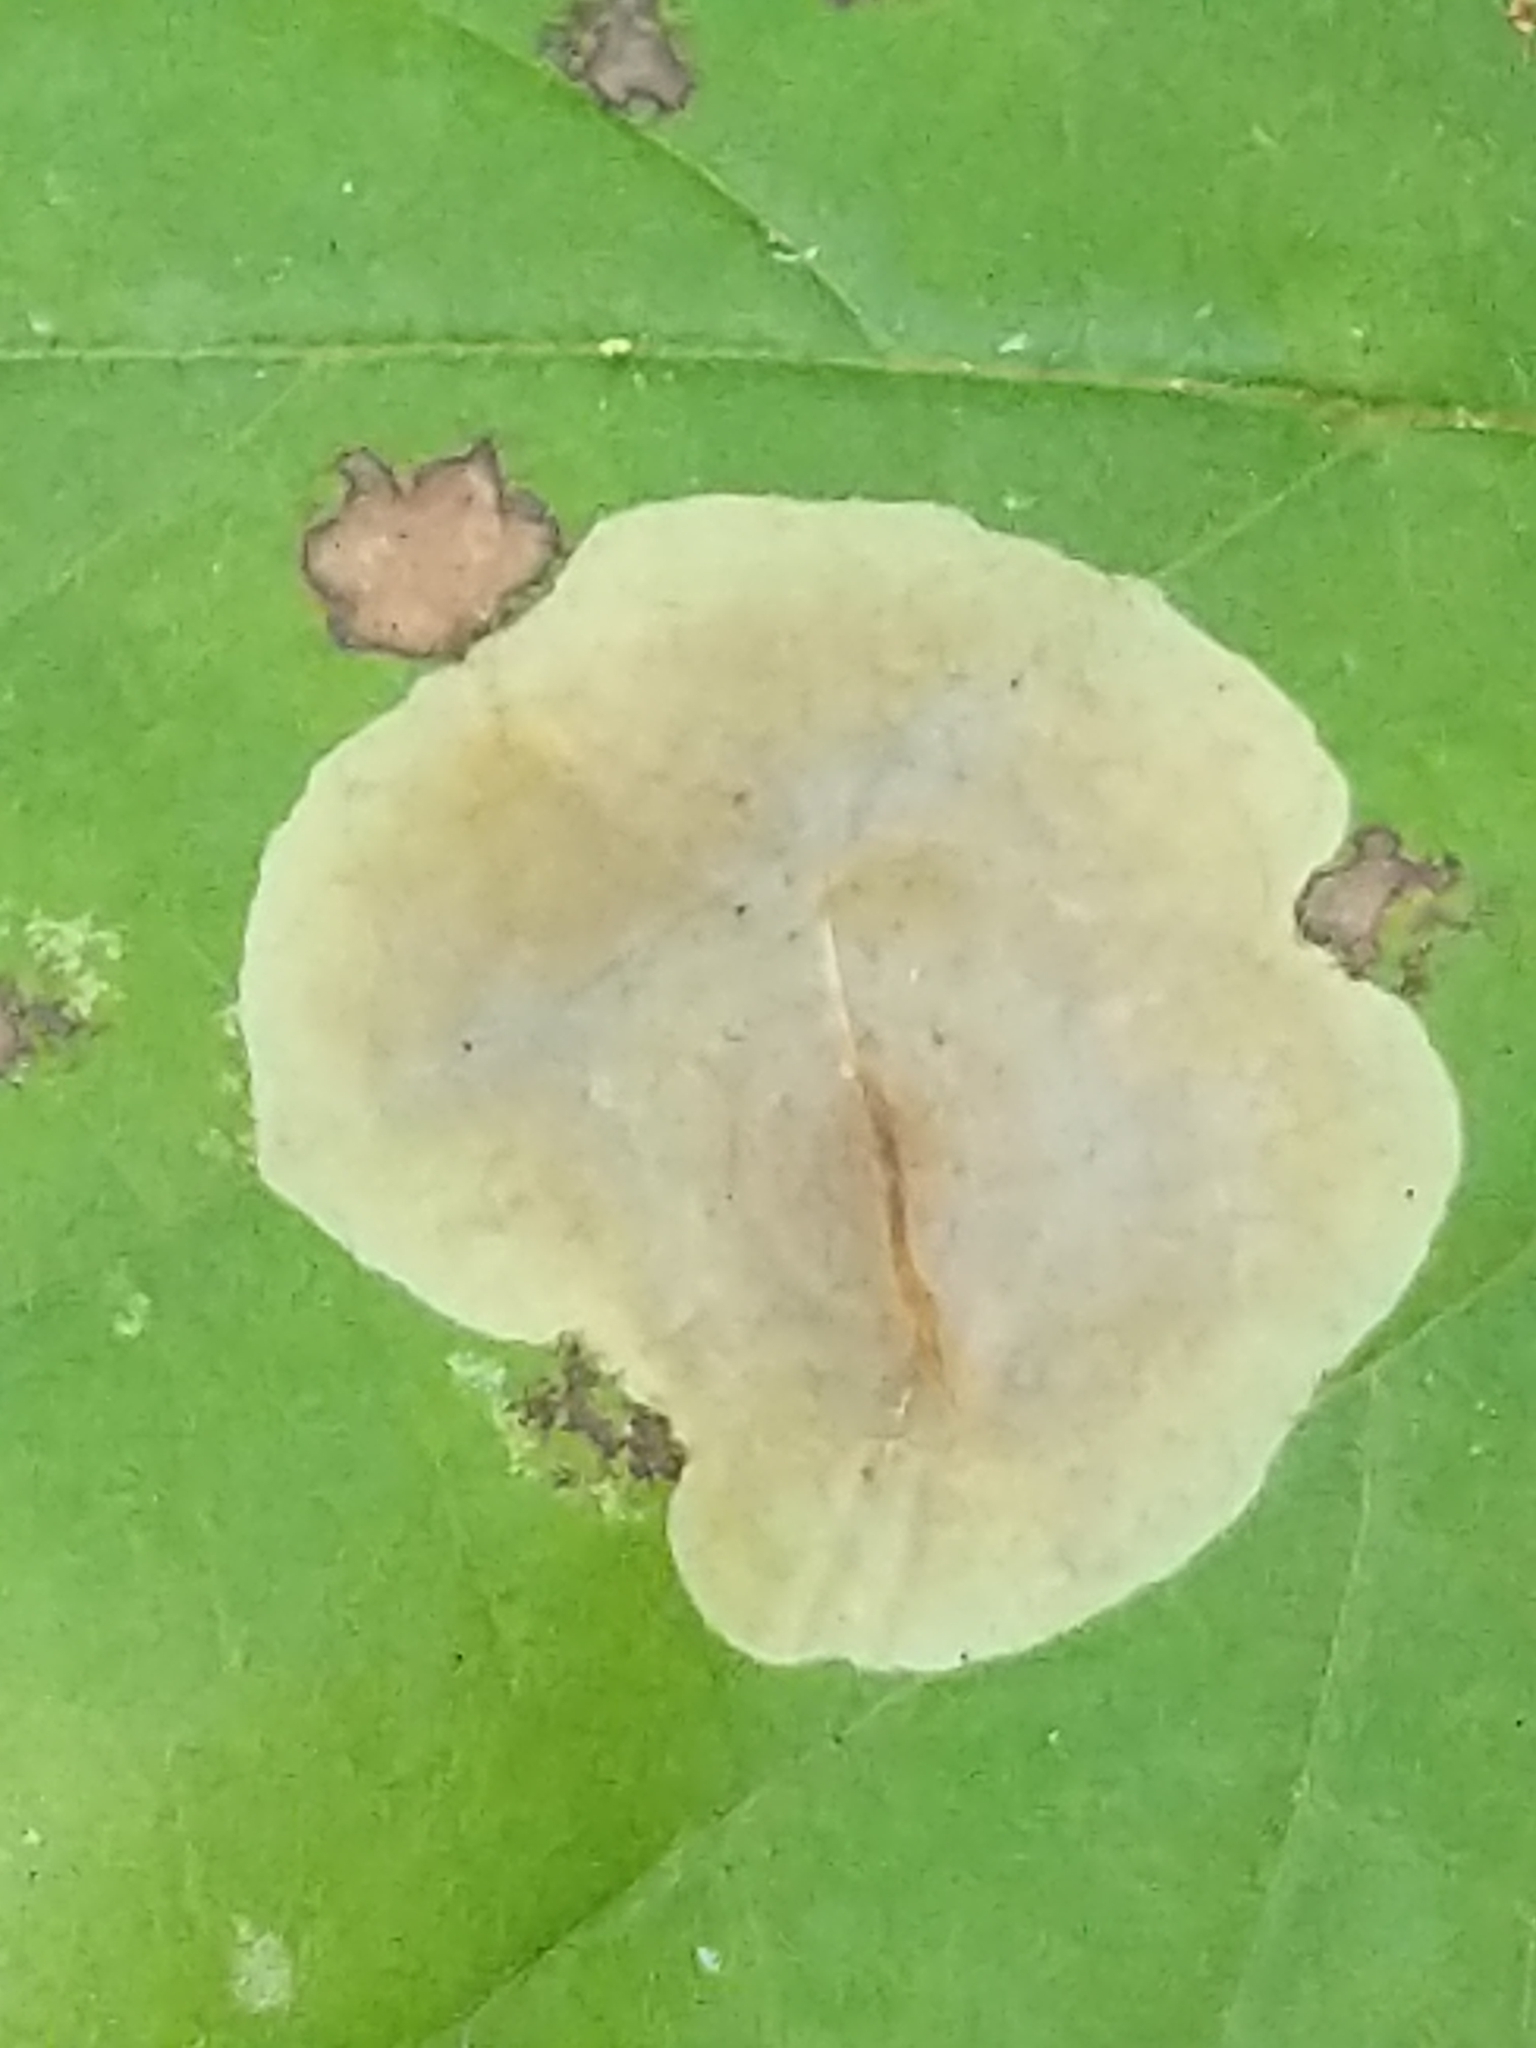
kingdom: Animalia
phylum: Arthropoda
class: Insecta
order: Lepidoptera
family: Gracillariidae
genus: Cameraria
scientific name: Cameraria hamameliella
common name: Witchhazel leafminer
